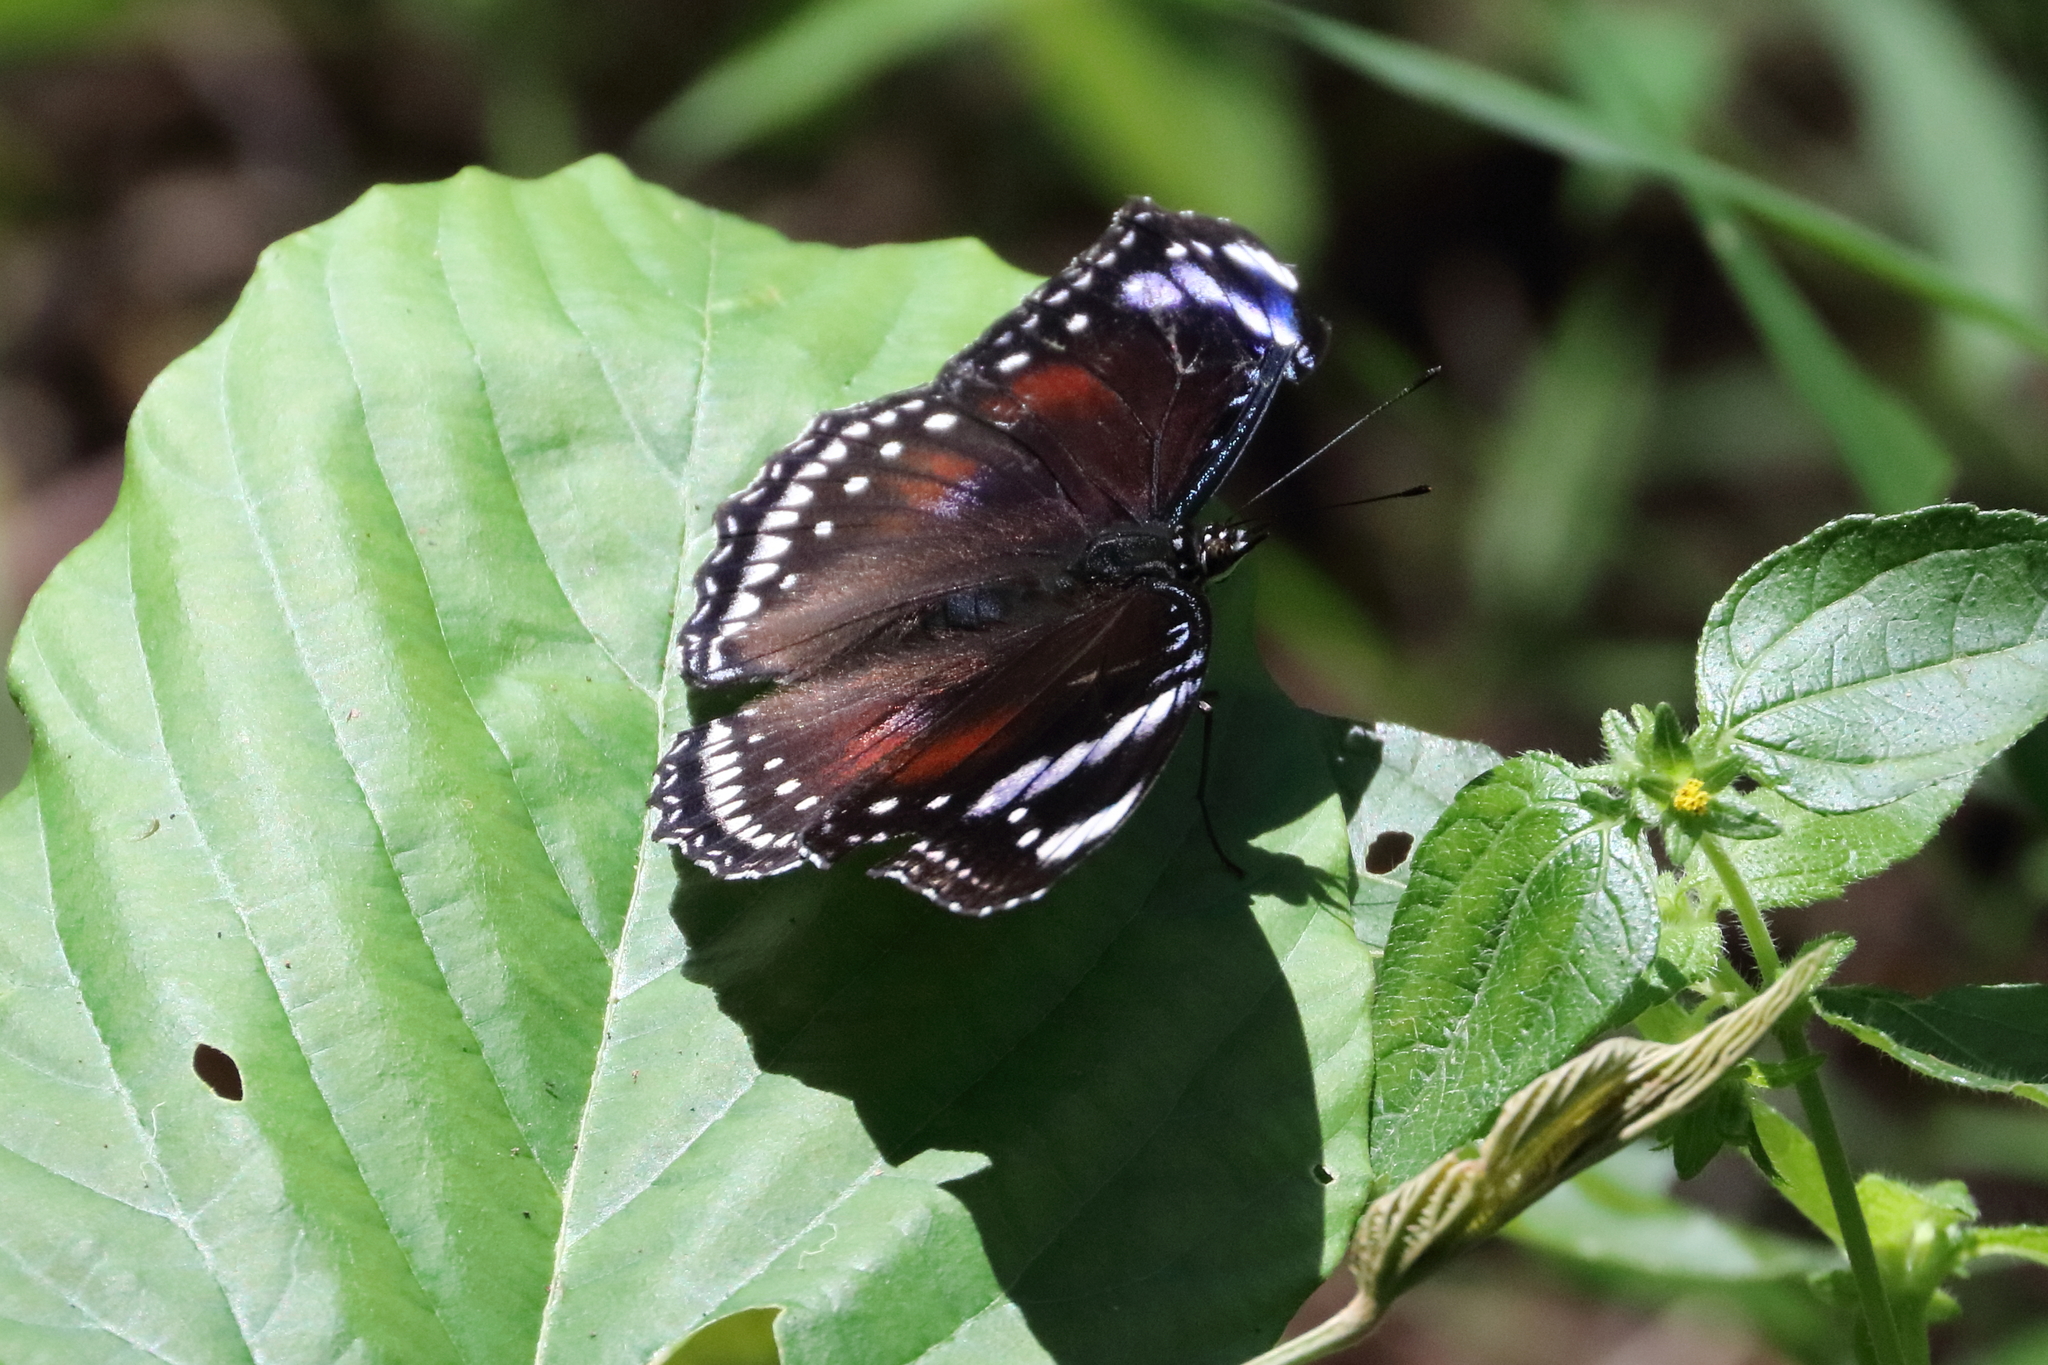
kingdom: Animalia
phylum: Arthropoda
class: Insecta
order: Lepidoptera
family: Nymphalidae
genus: Hypolimnas
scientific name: Hypolimnas bolina
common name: Great eggfly
